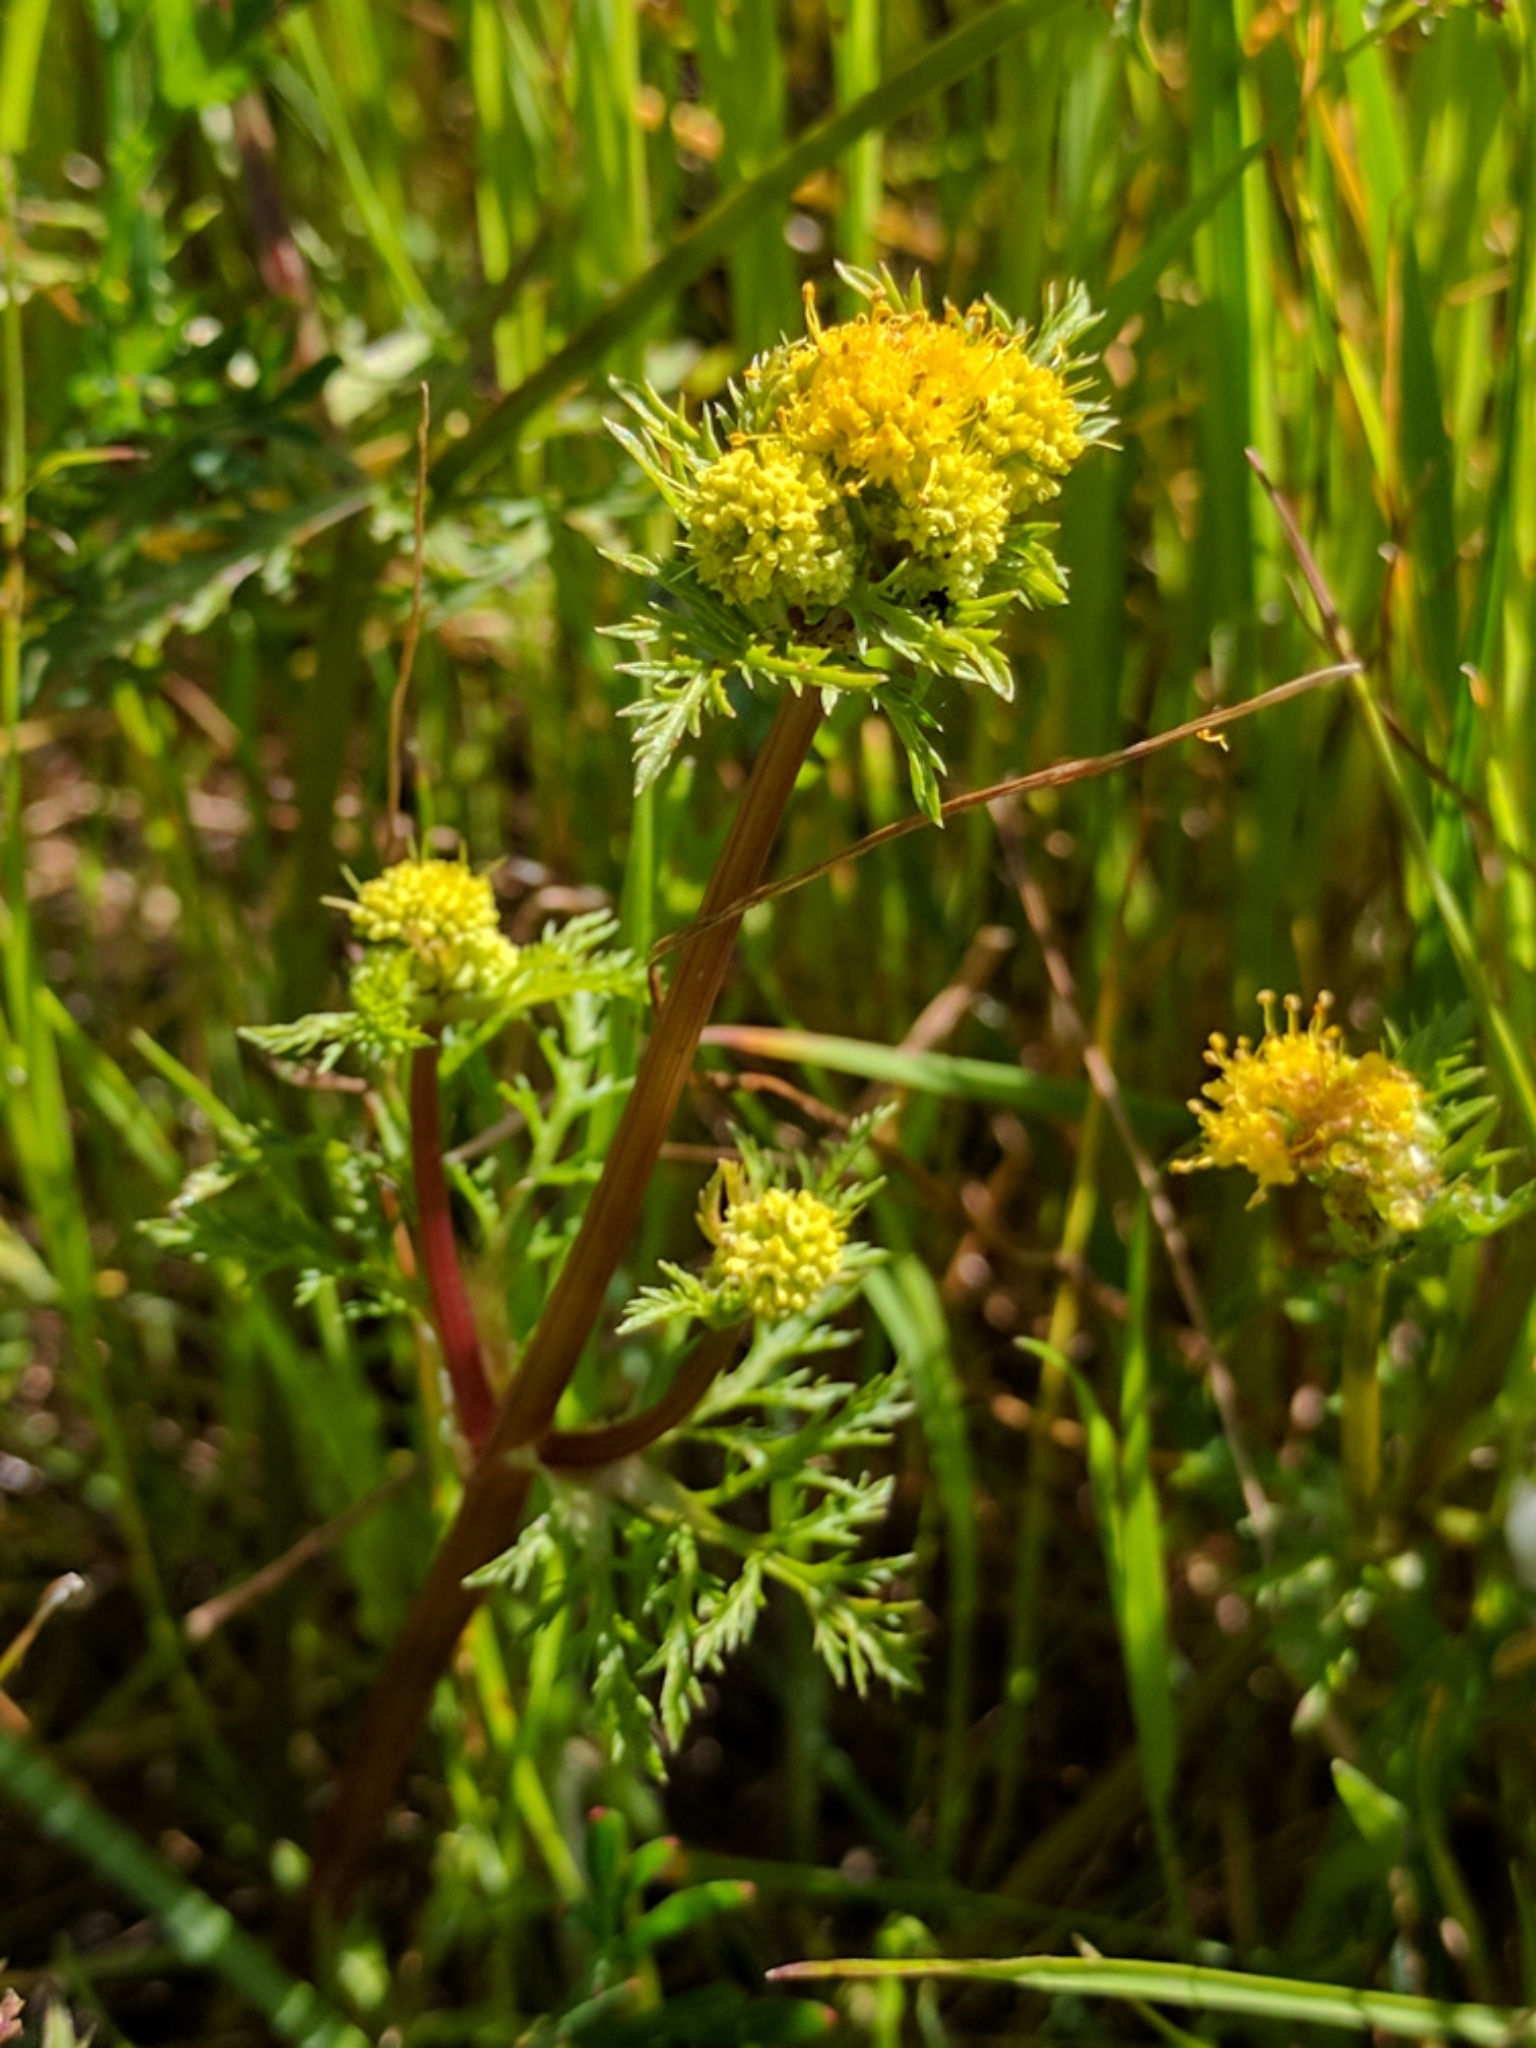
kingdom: Plantae
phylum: Tracheophyta
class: Magnoliopsida
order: Apiales
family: Apiaceae
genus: Sanicula
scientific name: Sanicula tuberosa
